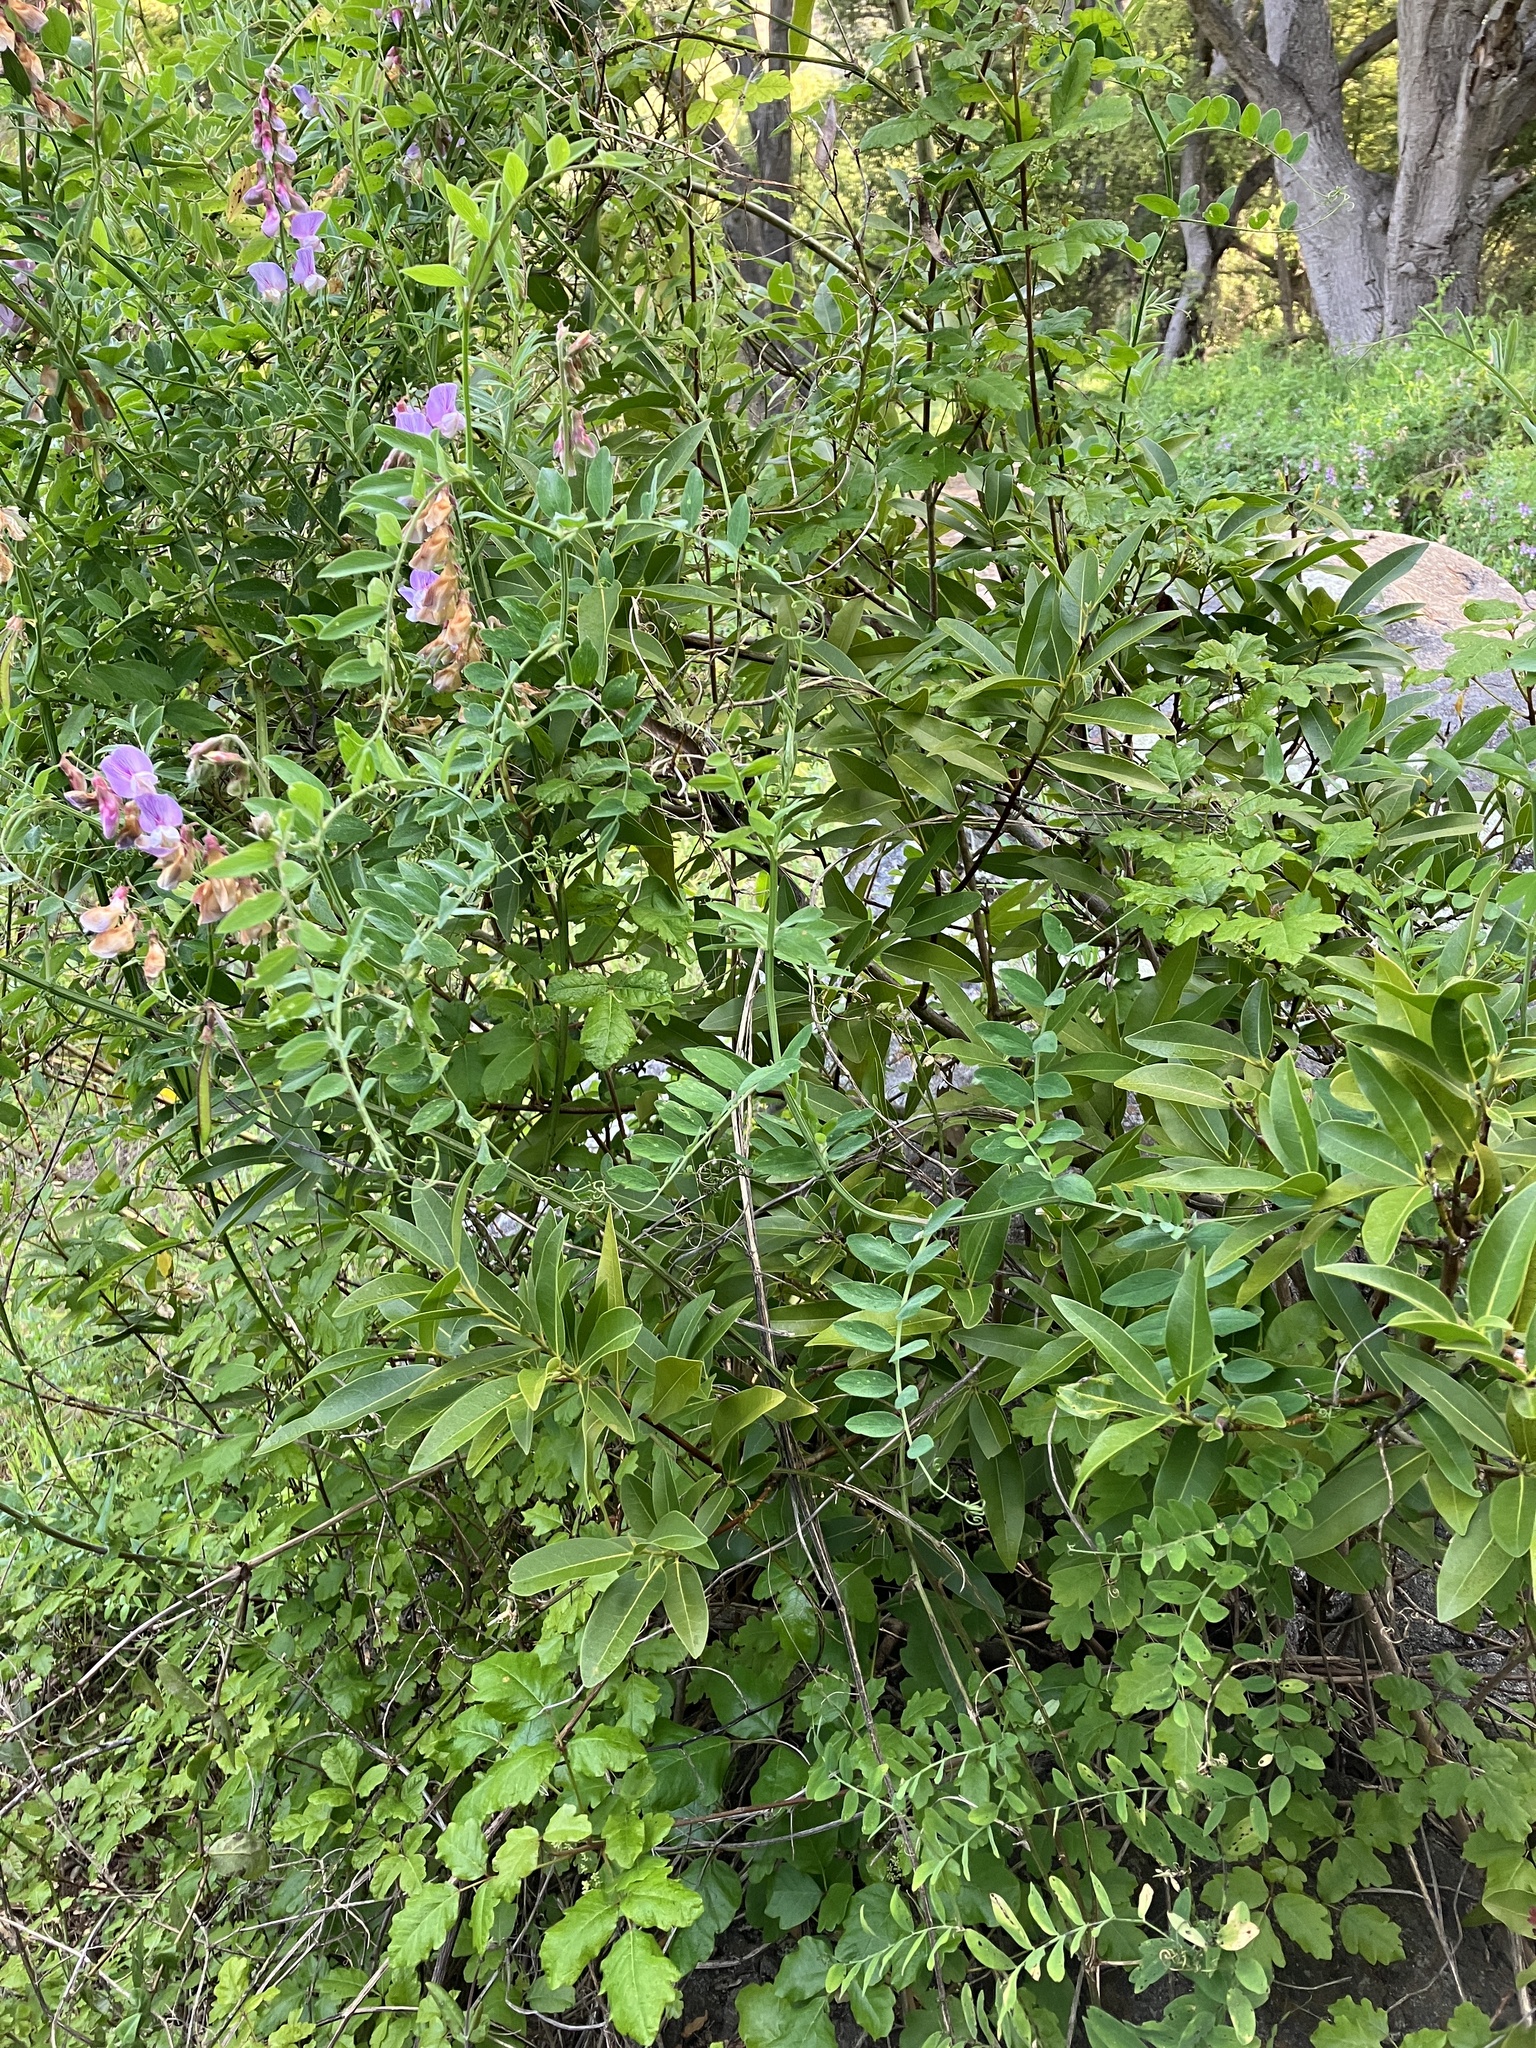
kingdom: Plantae
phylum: Tracheophyta
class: Magnoliopsida
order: Fabales
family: Fabaceae
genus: Lathyrus
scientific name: Lathyrus vestitus
